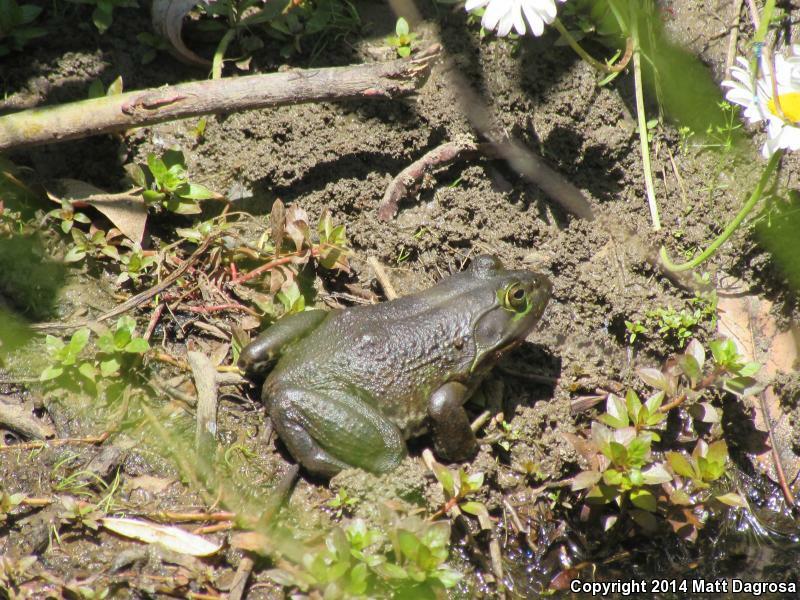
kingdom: Animalia
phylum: Chordata
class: Amphibia
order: Anura
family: Ranidae
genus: Lithobates
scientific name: Lithobates catesbeianus
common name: American bullfrog
